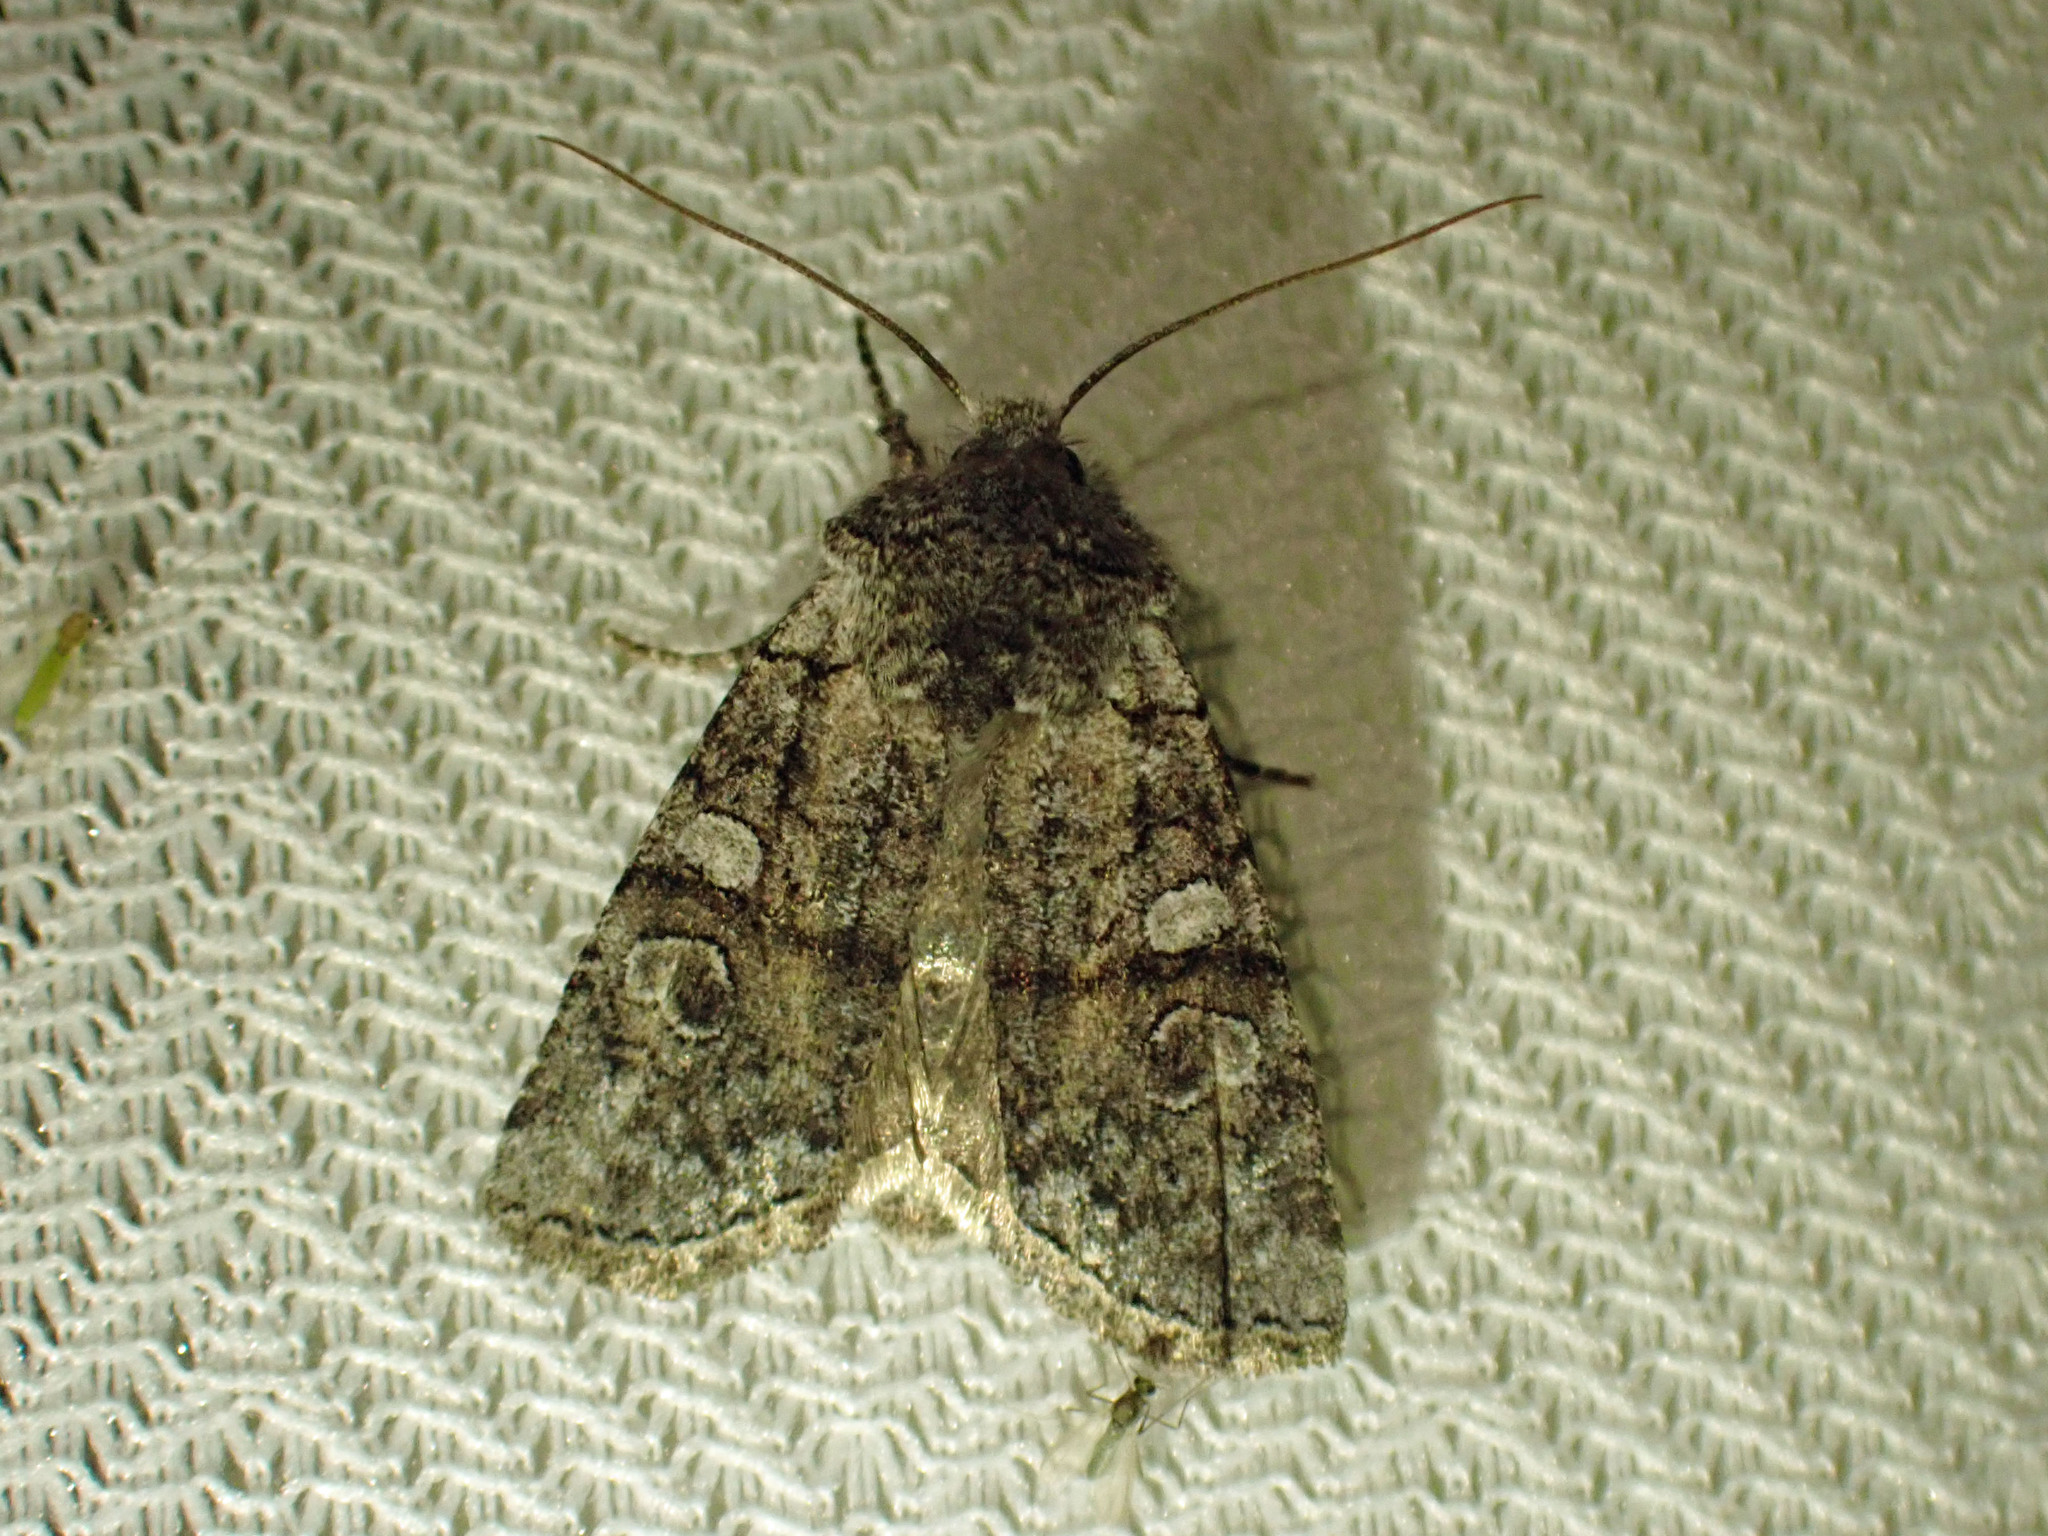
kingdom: Animalia
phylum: Arthropoda
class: Insecta
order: Lepidoptera
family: Noctuidae
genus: Litholomia
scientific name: Litholomia napaea
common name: False pinion moth
